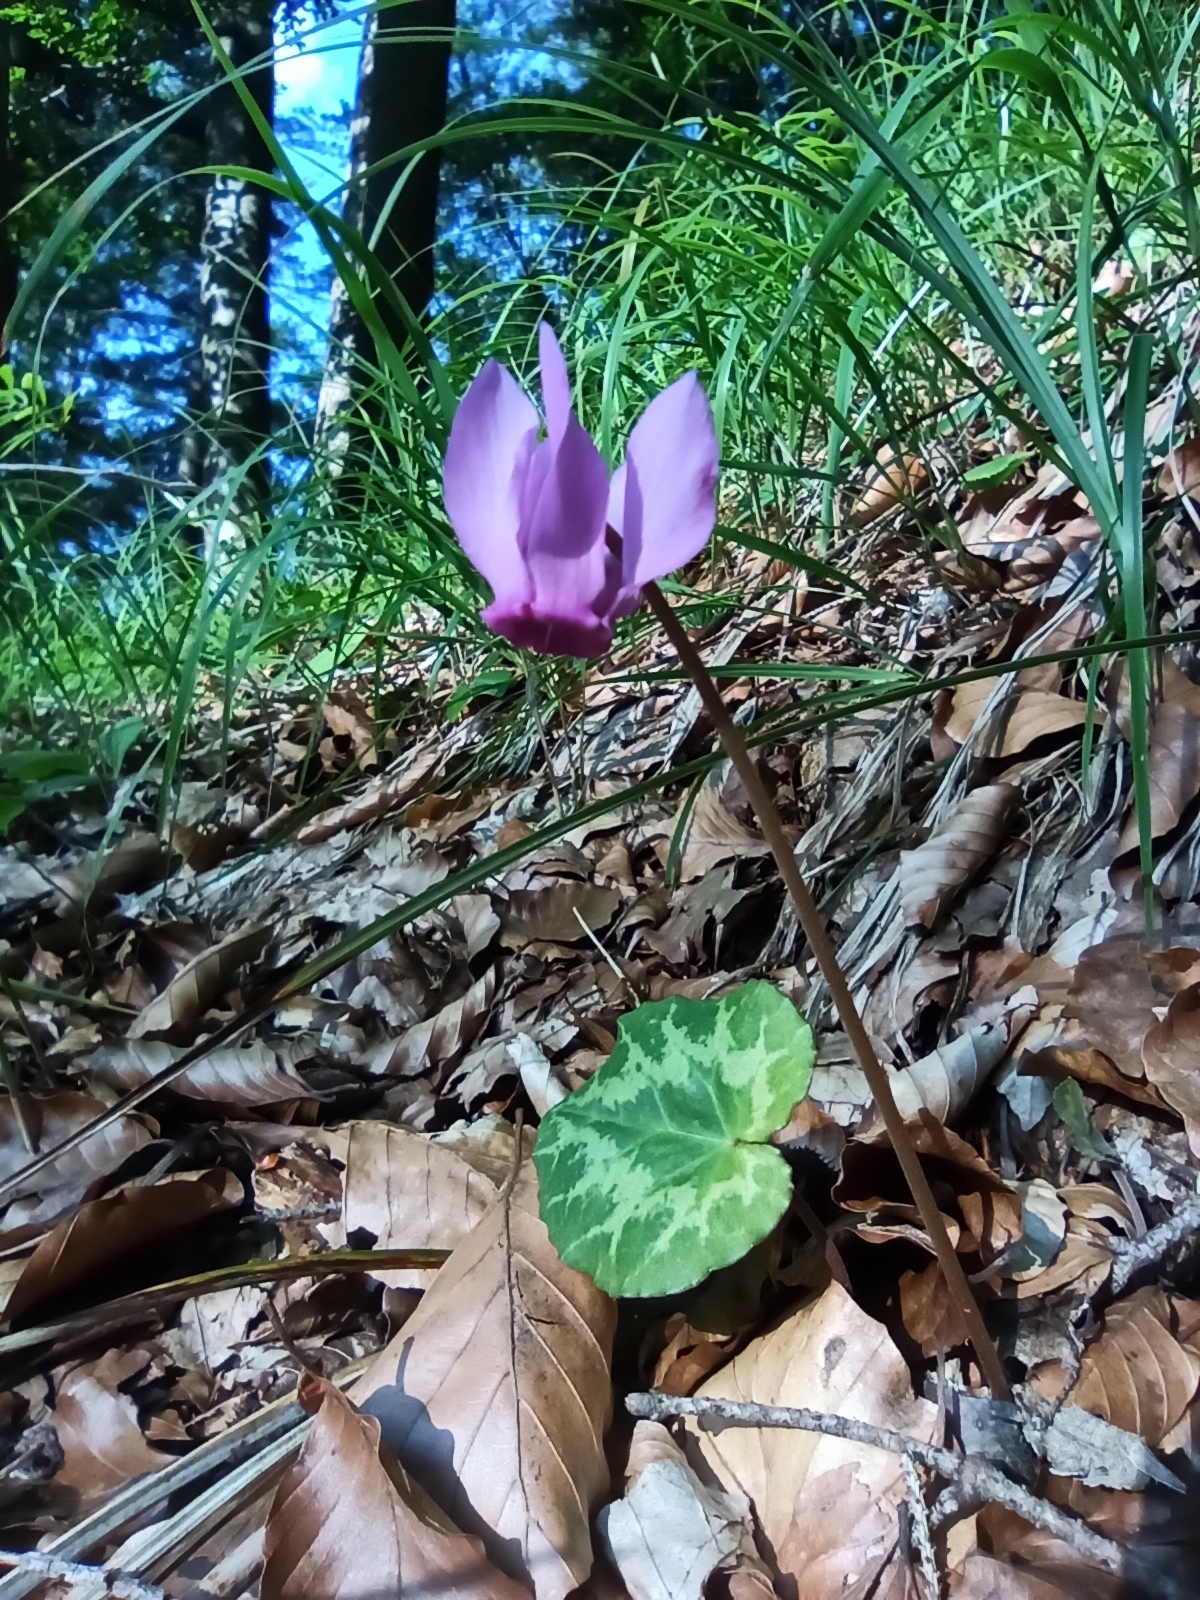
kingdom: Plantae
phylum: Tracheophyta
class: Magnoliopsida
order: Ericales
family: Primulaceae
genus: Cyclamen
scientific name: Cyclamen purpurascens
